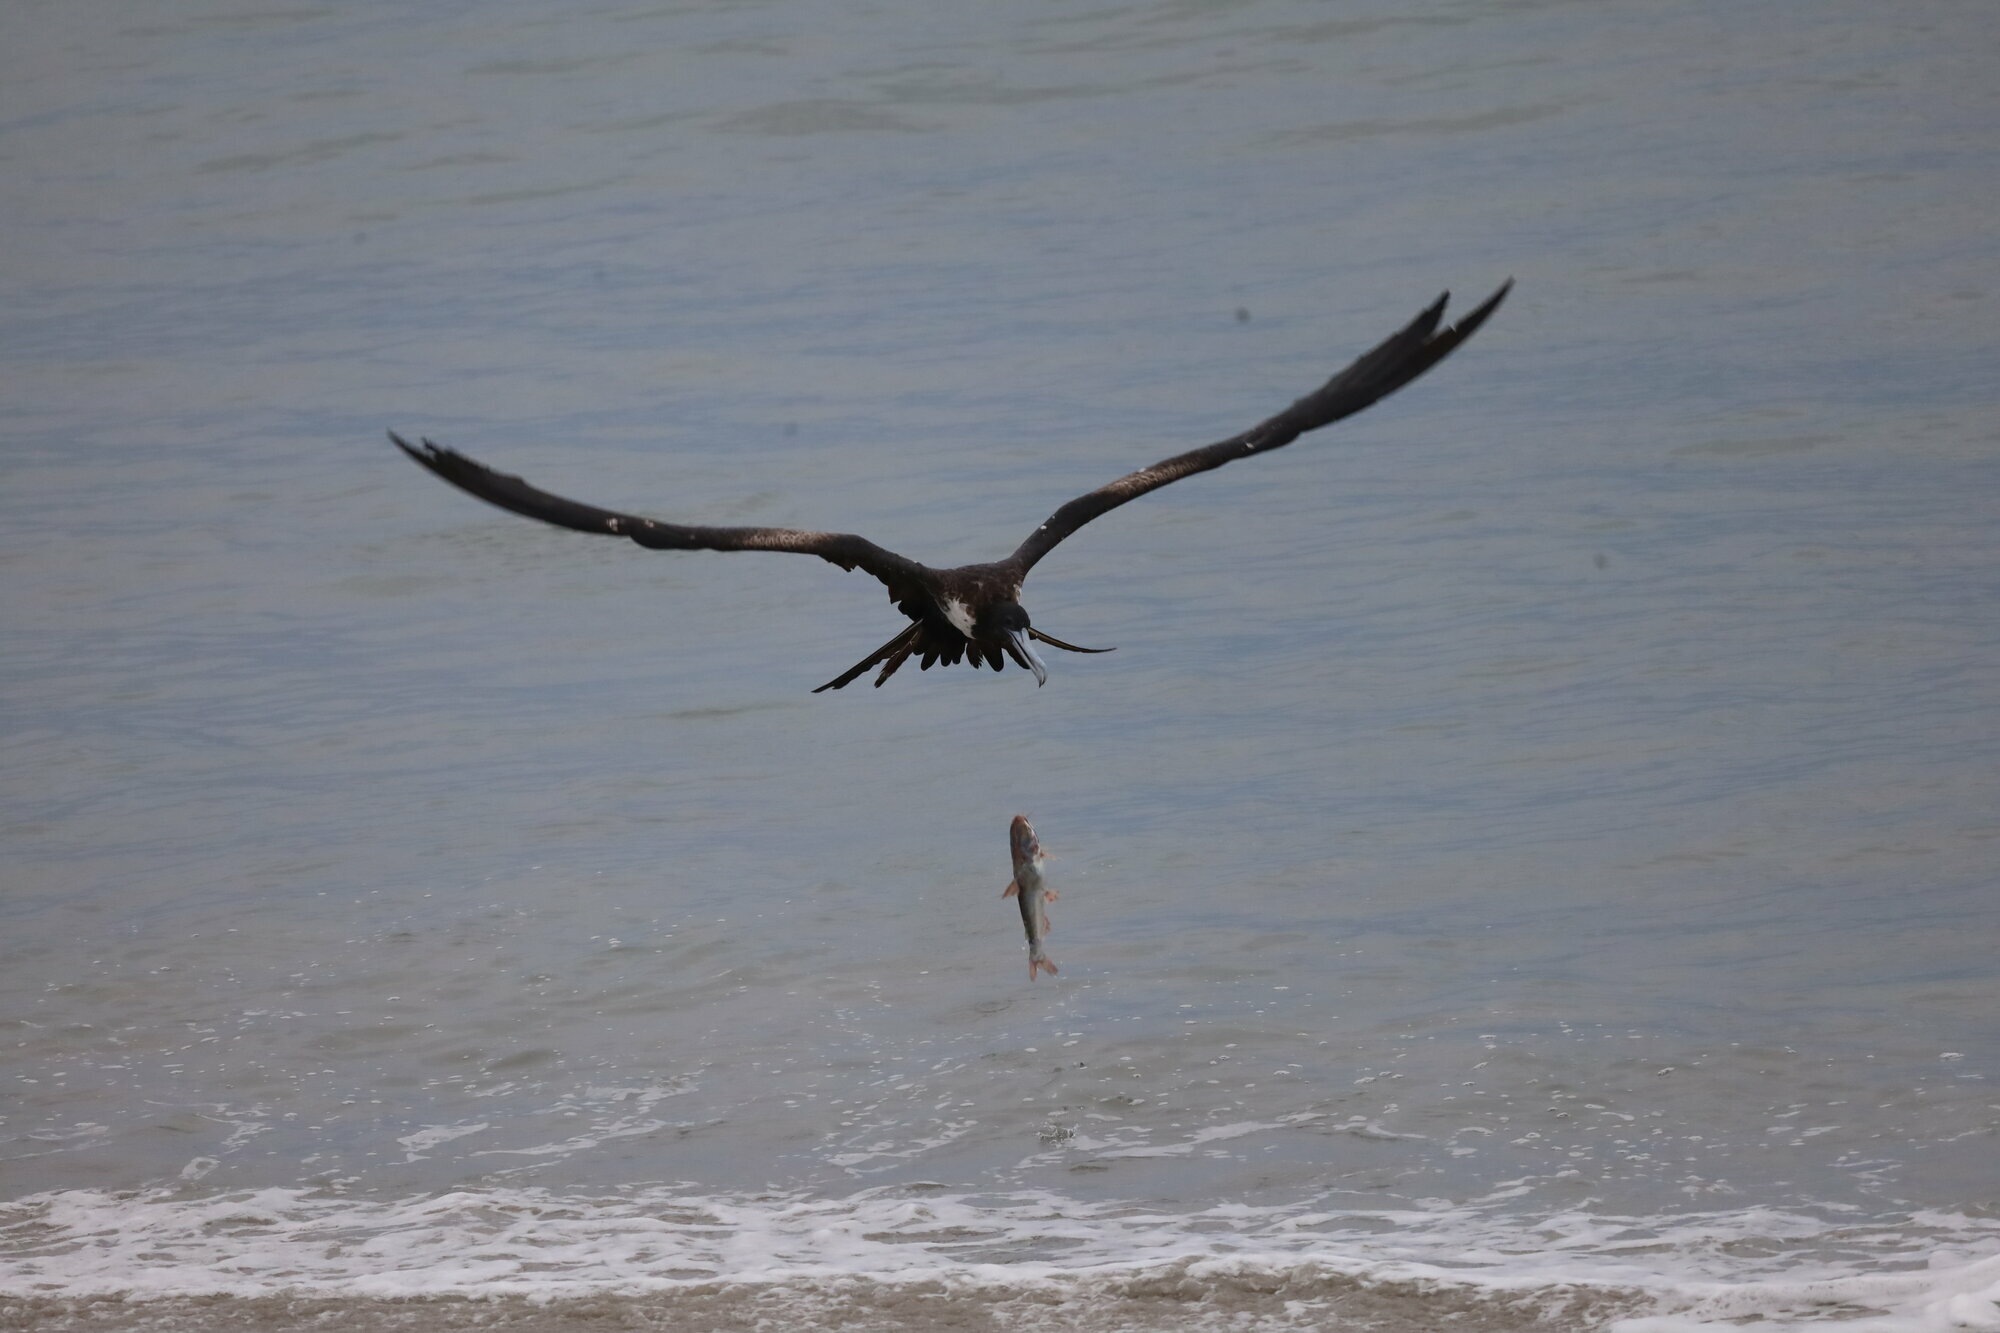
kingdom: Animalia
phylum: Chordata
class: Aves
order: Suliformes
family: Fregatidae
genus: Fregata
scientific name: Fregata magnificens
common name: Magnificent frigatebird
